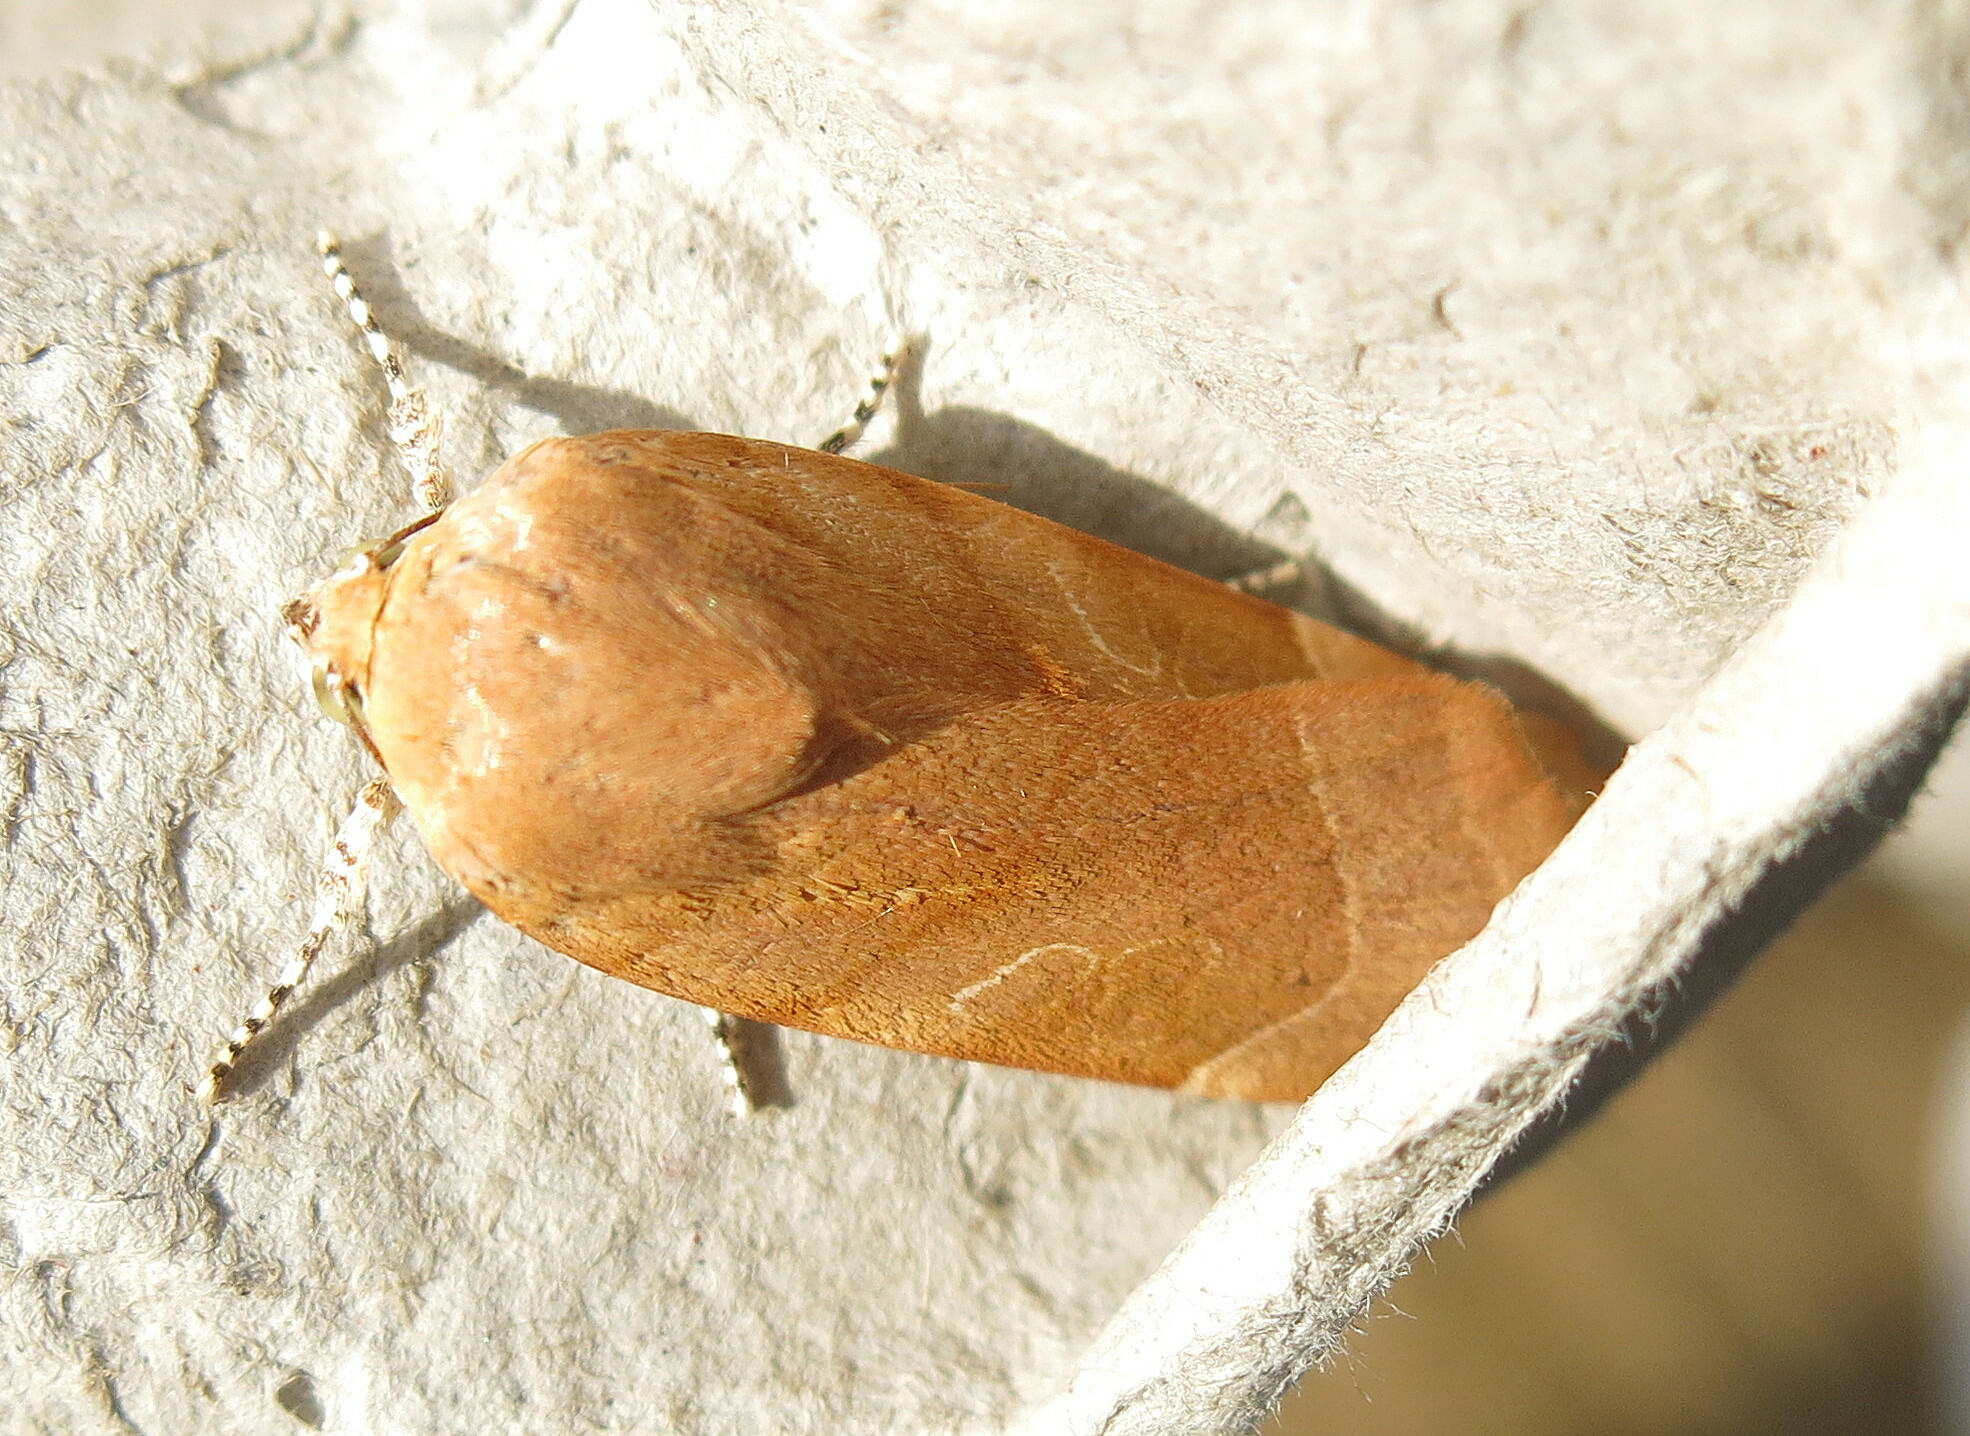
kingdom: Animalia
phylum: Arthropoda
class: Insecta
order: Lepidoptera
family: Noctuidae
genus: Noctua
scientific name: Noctua fimbriata
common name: Broad-bordered yellow underwing
